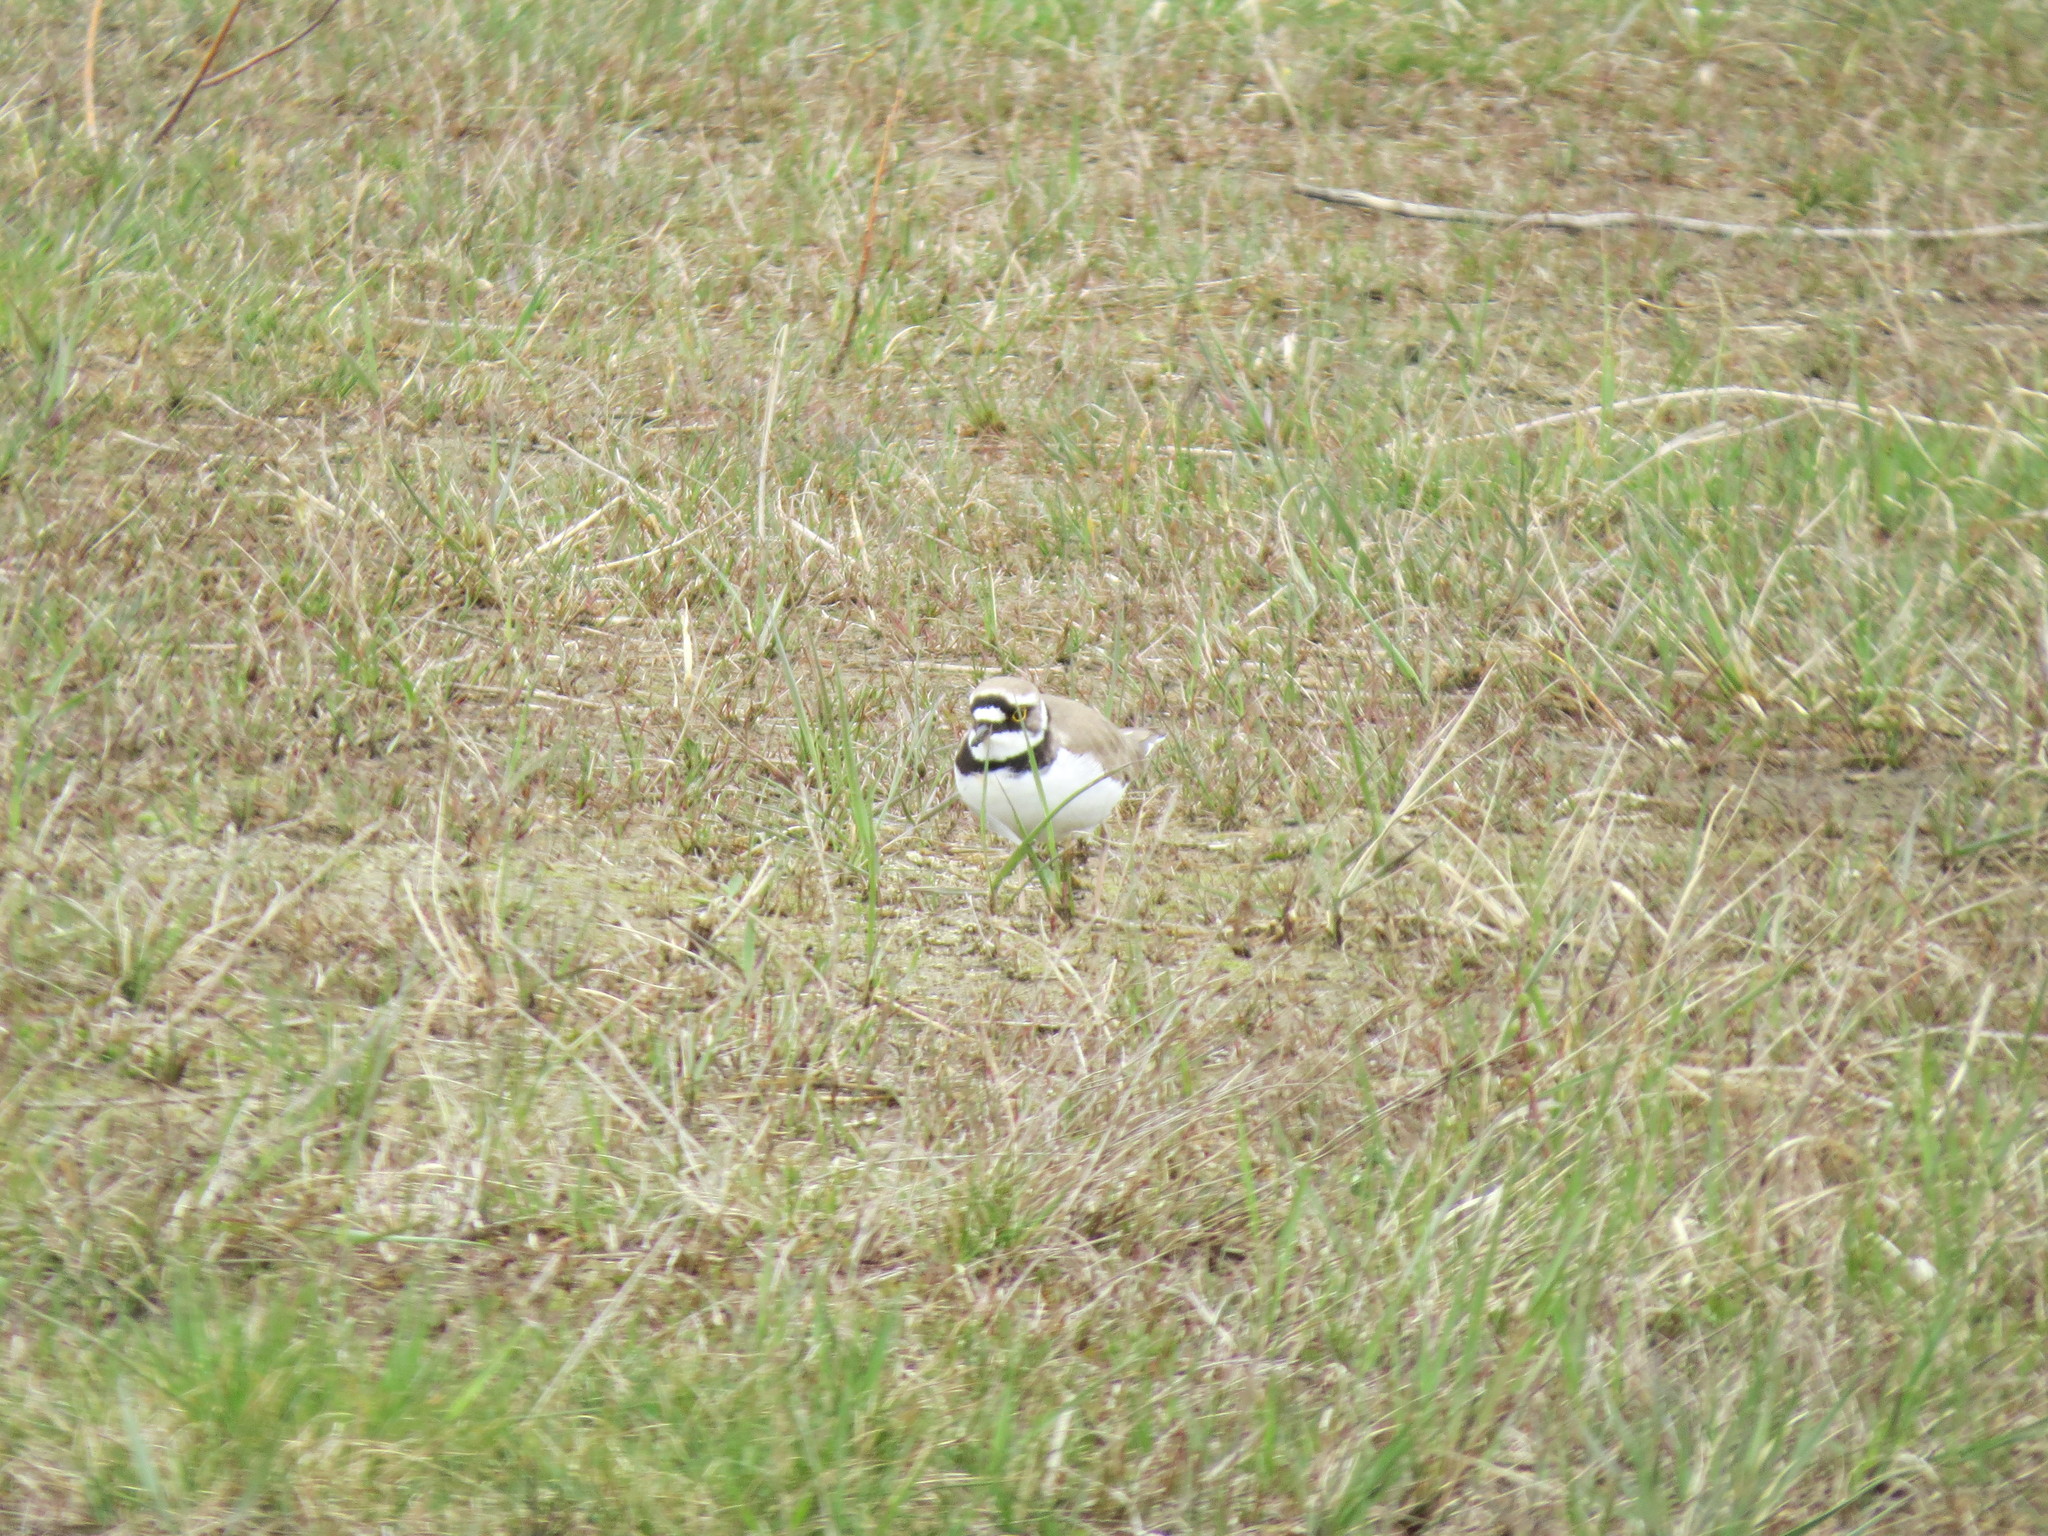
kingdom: Animalia
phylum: Chordata
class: Aves
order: Charadriiformes
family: Charadriidae
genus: Charadrius
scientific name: Charadrius dubius
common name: Little ringed plover
